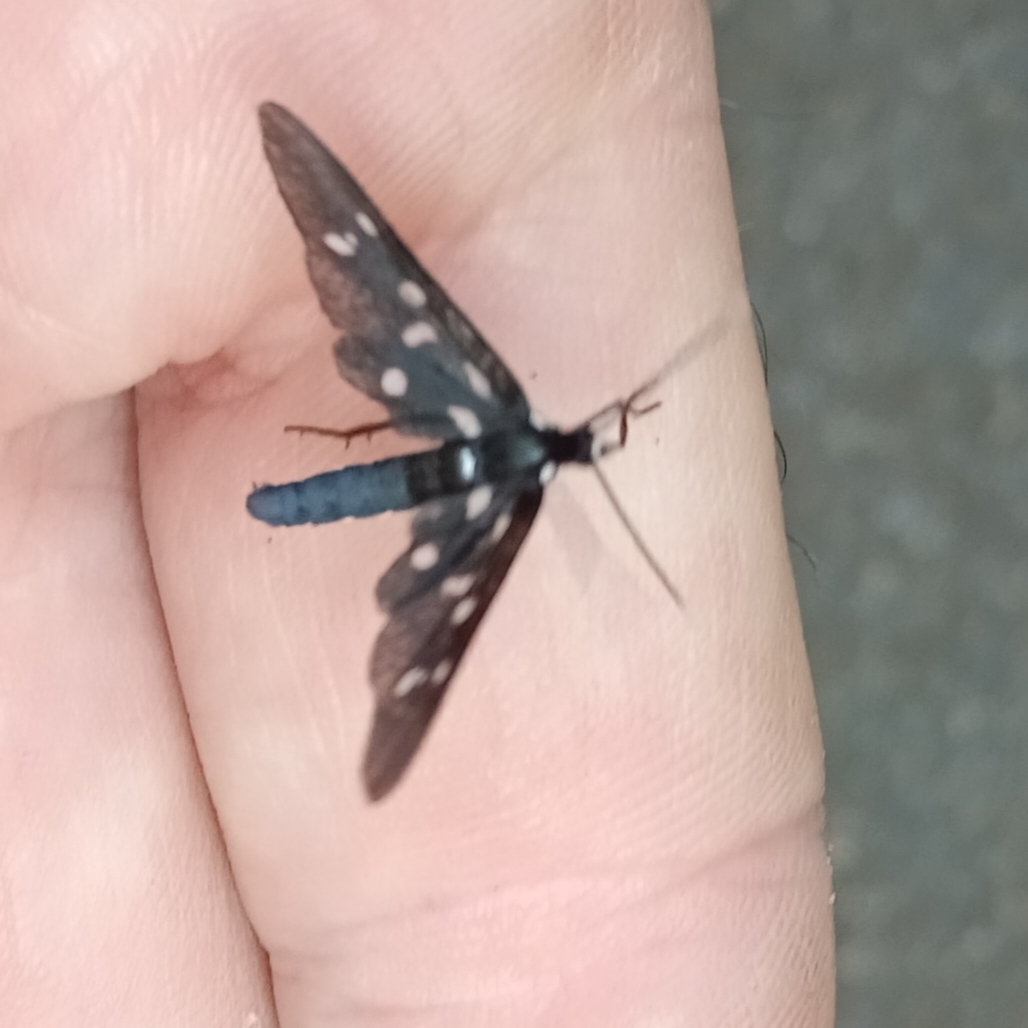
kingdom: Animalia
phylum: Arthropoda
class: Insecta
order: Lepidoptera
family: Erebidae
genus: Ceryx
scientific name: Ceryx longipes
